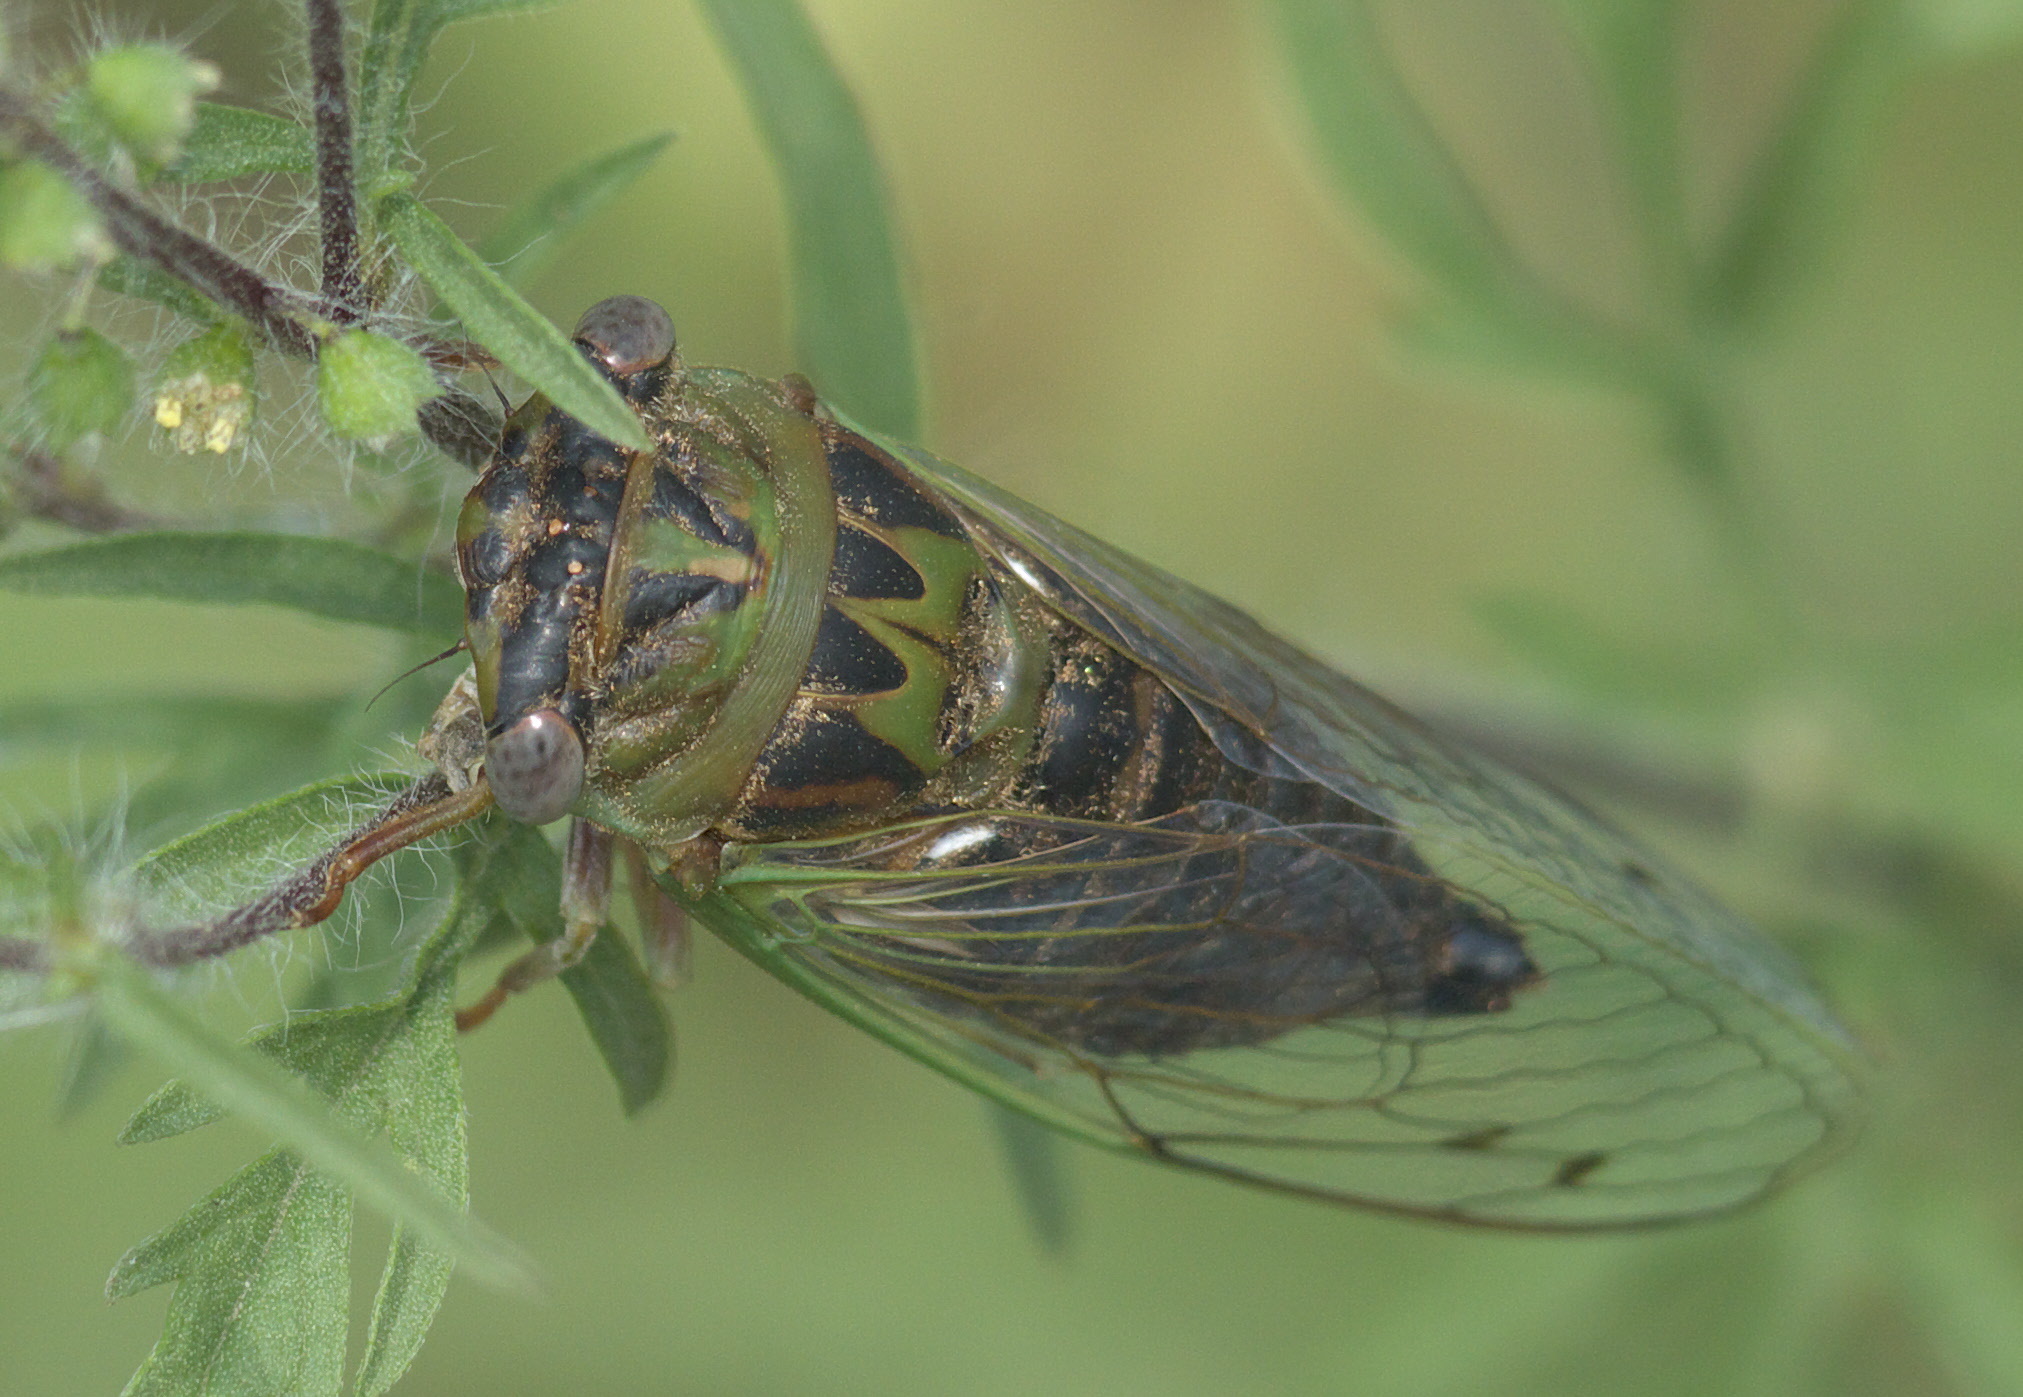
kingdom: Animalia
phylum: Arthropoda
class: Insecta
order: Hemiptera
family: Cicadidae
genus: Neotibicen
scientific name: Neotibicen aurifer
